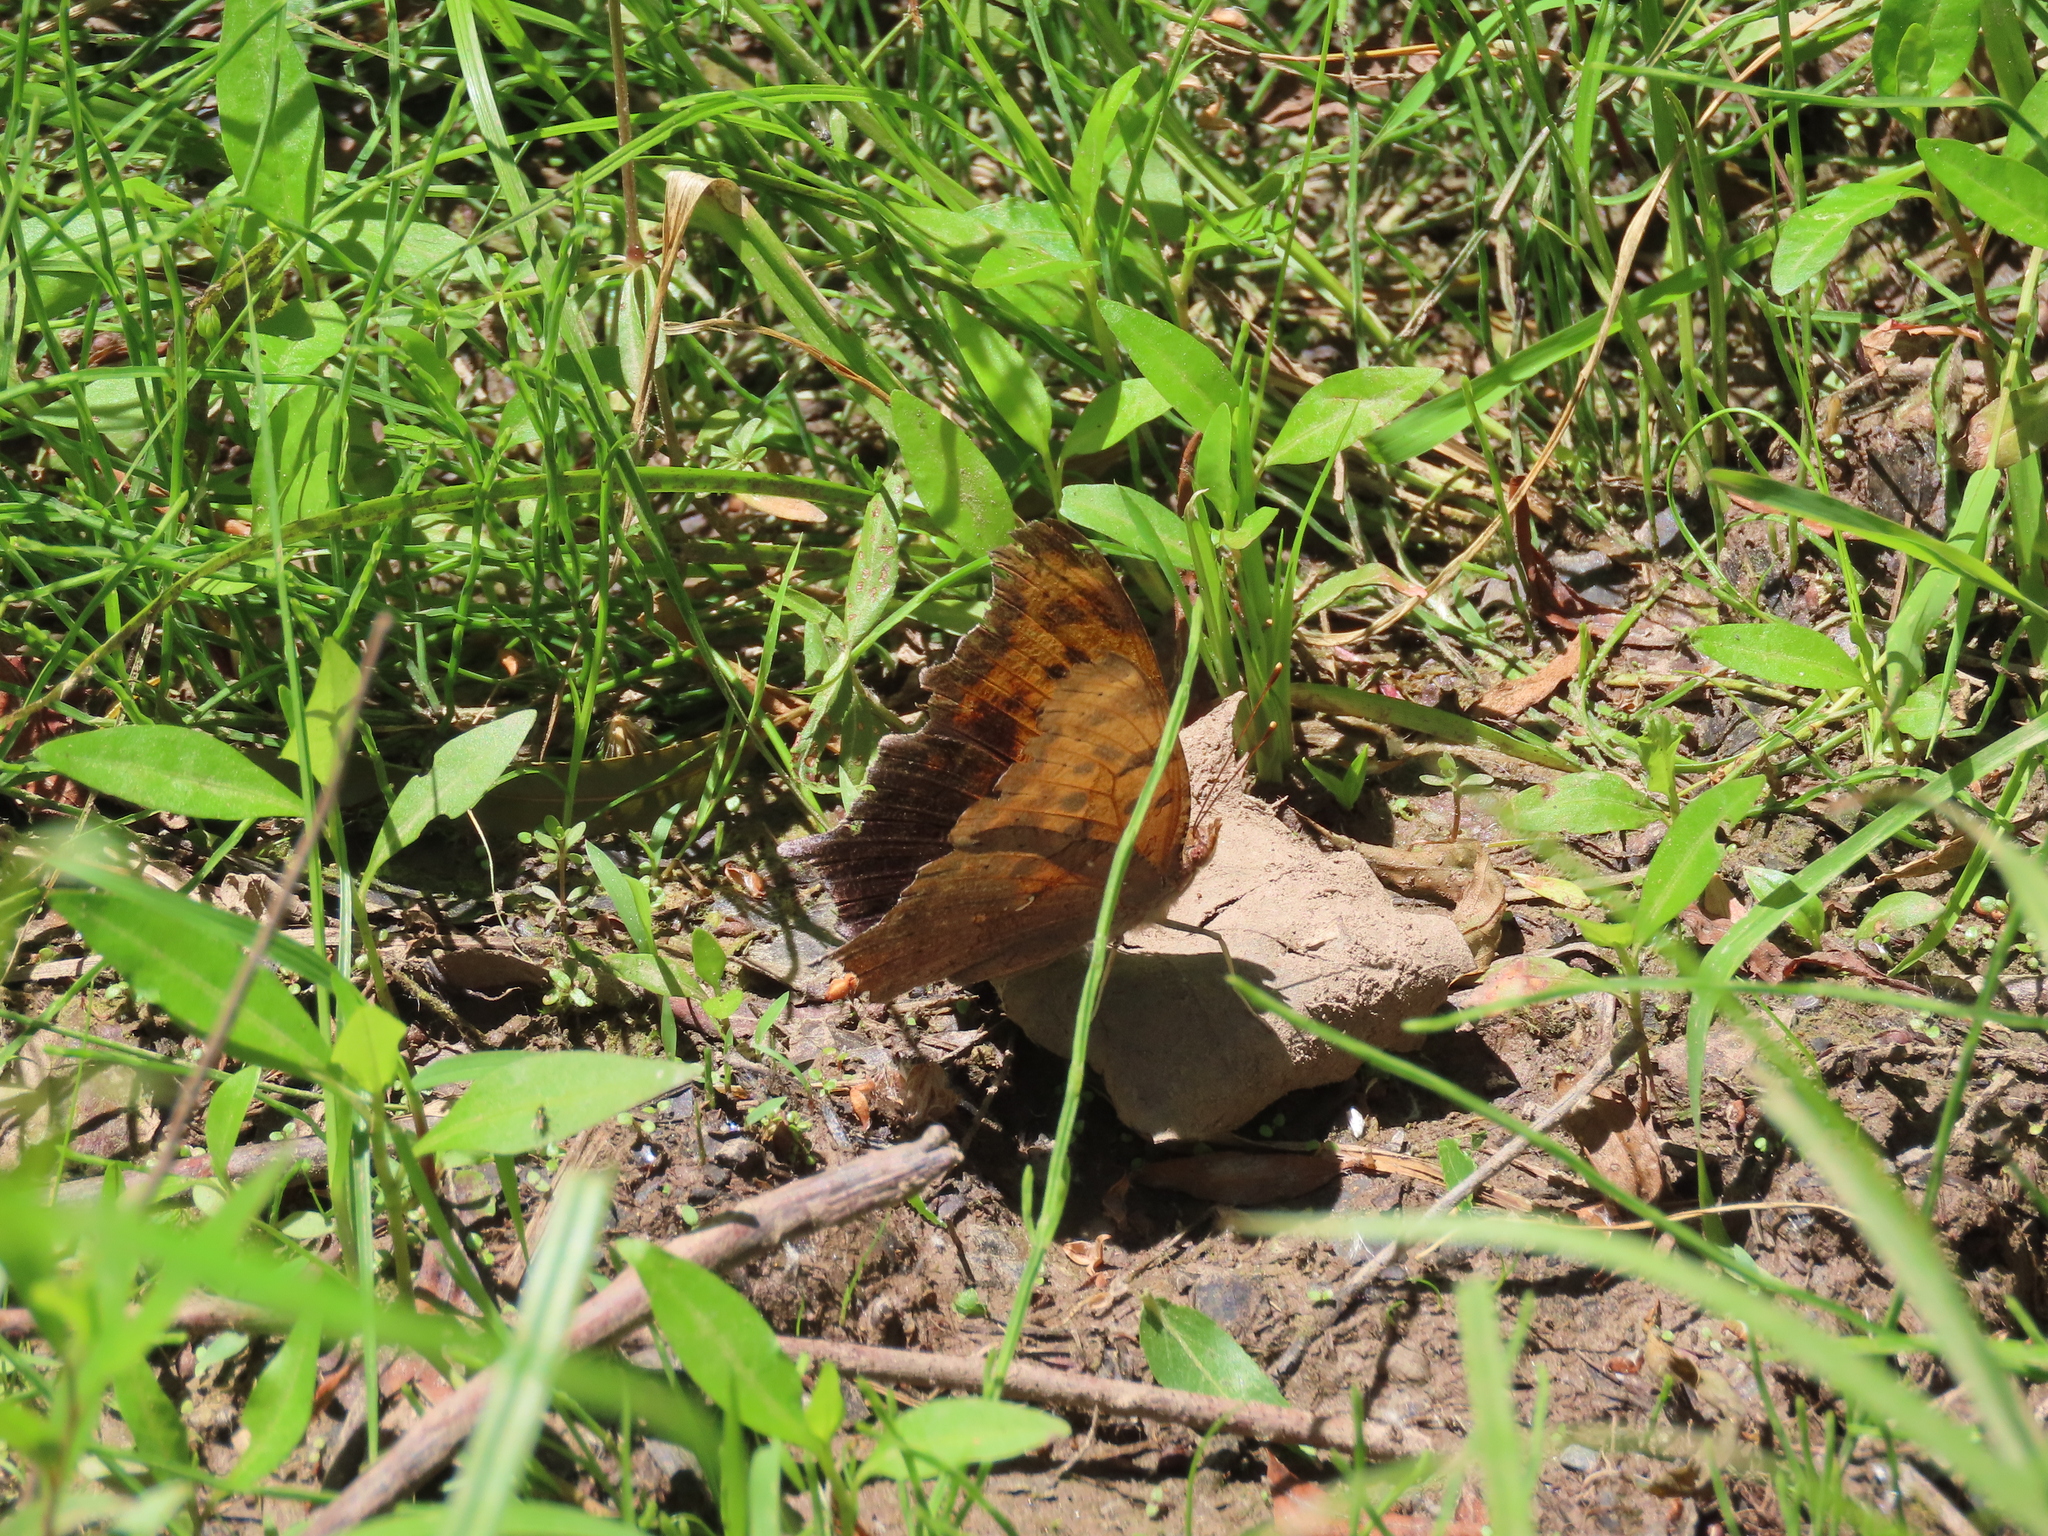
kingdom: Animalia
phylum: Arthropoda
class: Insecta
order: Lepidoptera
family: Nymphalidae
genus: Polygonia
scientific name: Polygonia interrogationis
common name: Question mark
